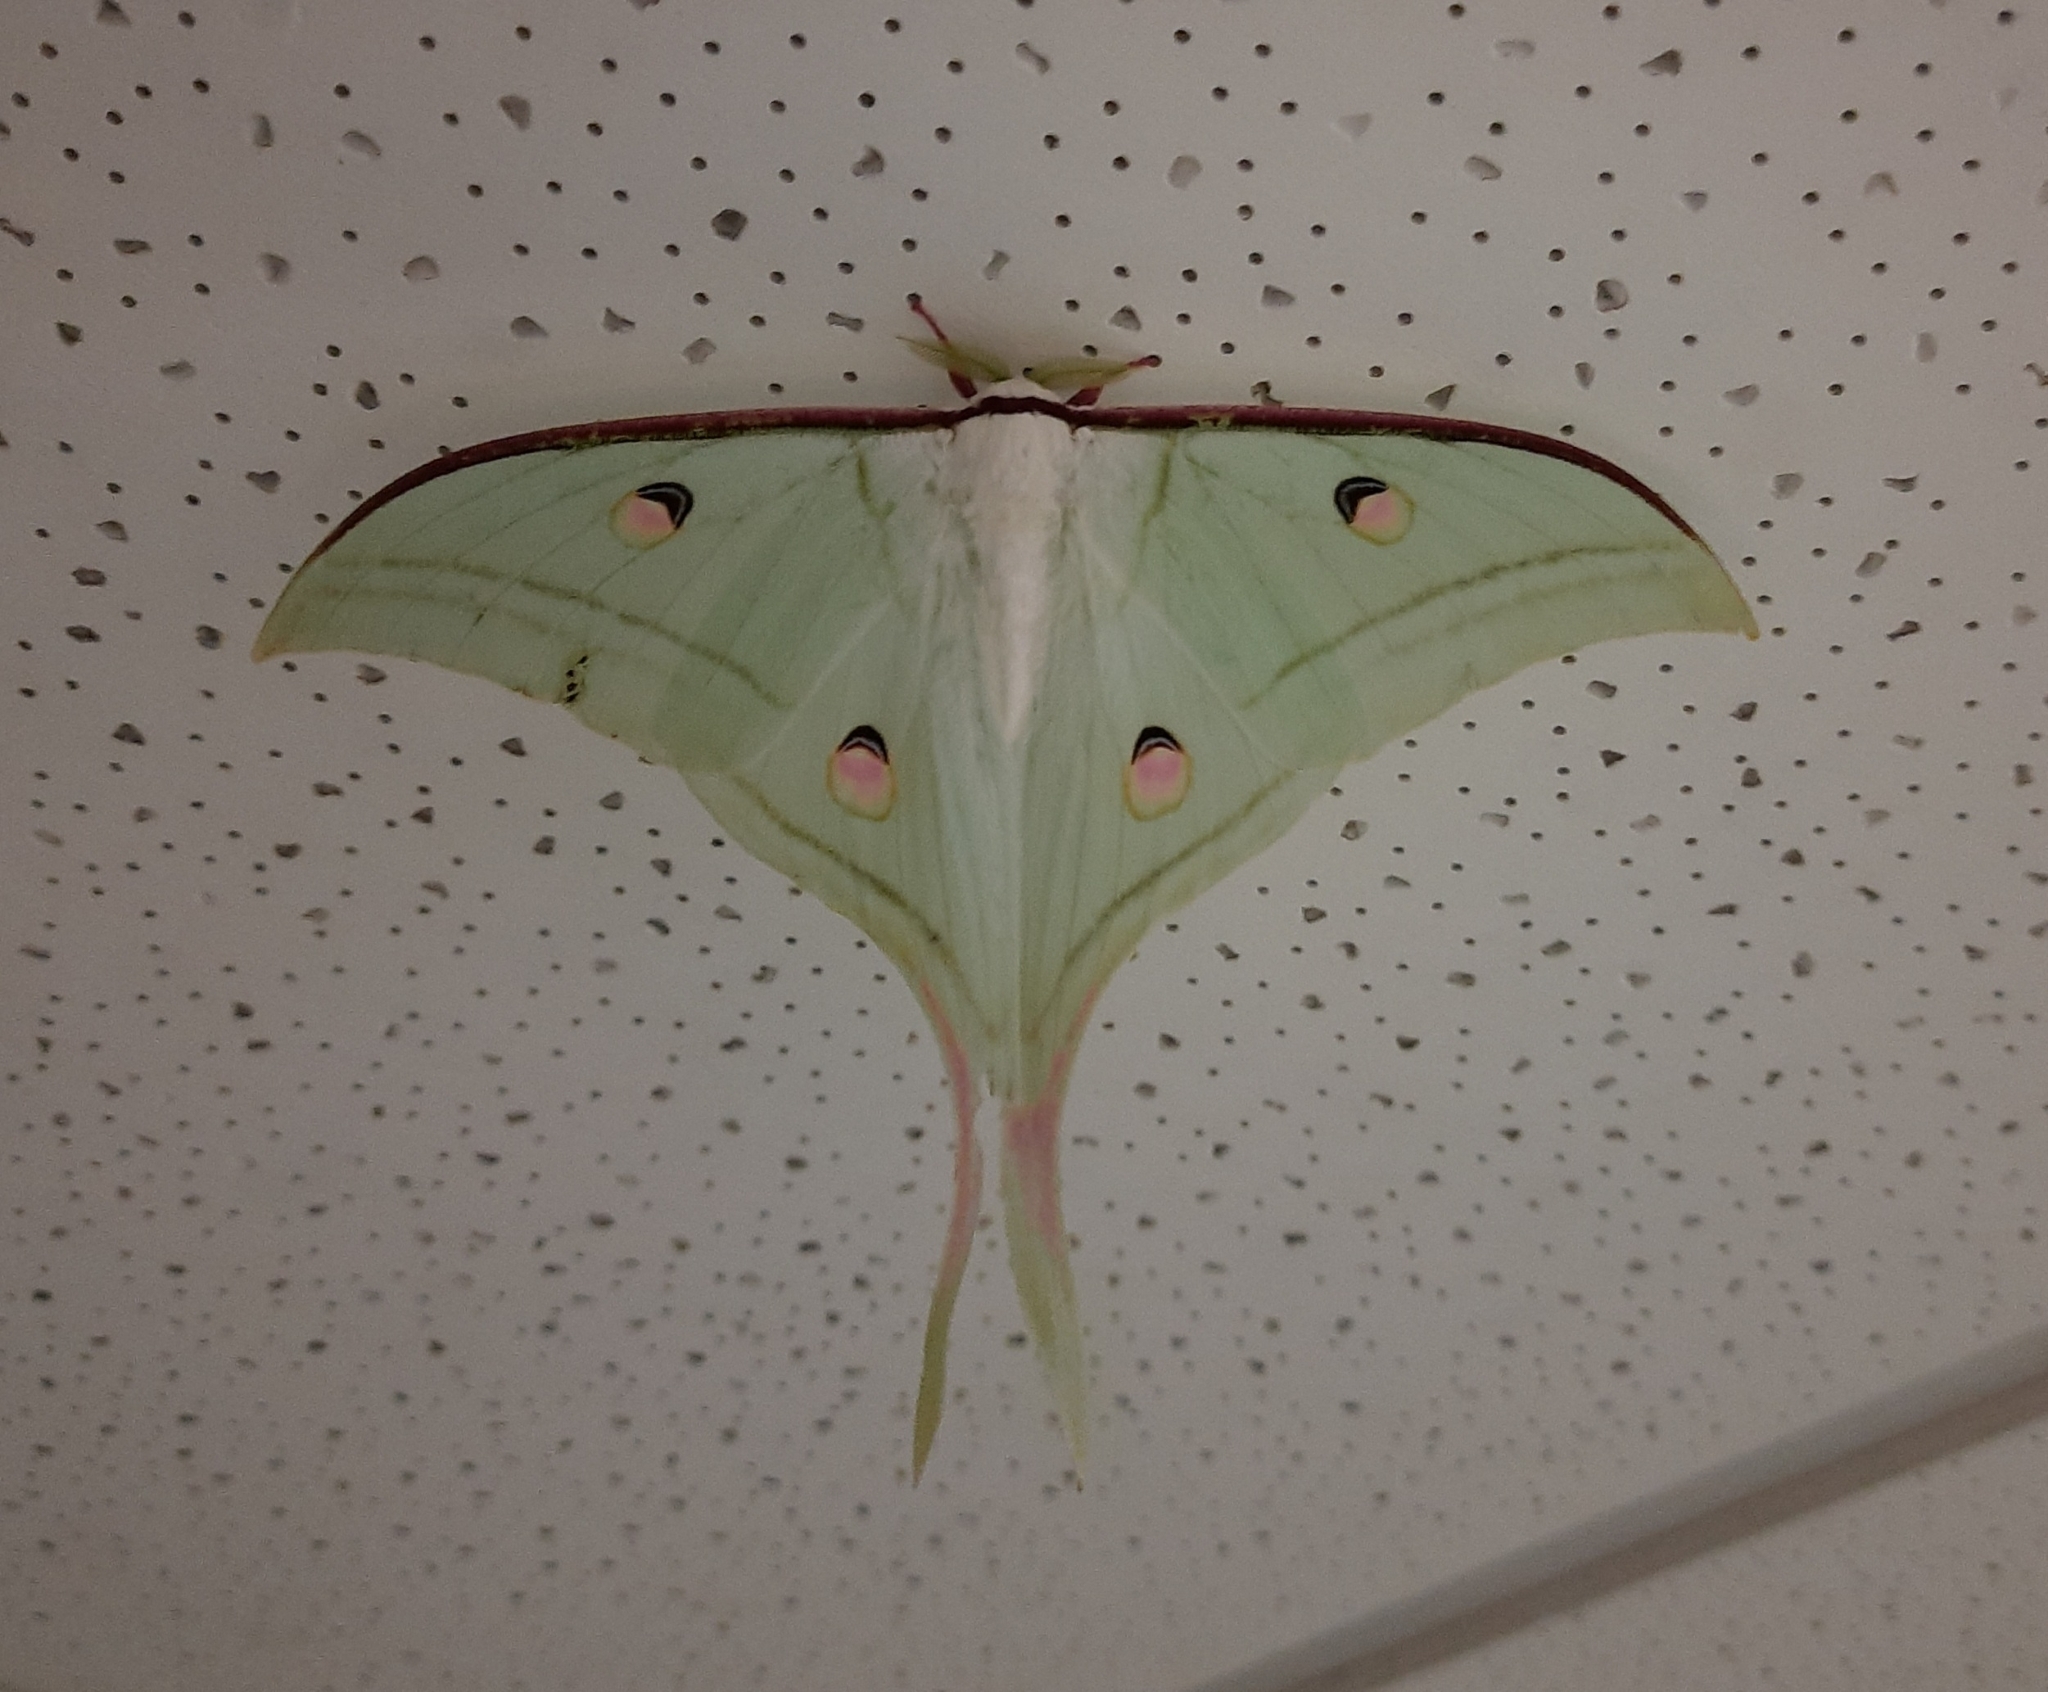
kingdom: Animalia
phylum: Arthropoda
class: Insecta
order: Lepidoptera
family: Saturniidae
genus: Actias
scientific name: Actias selene
